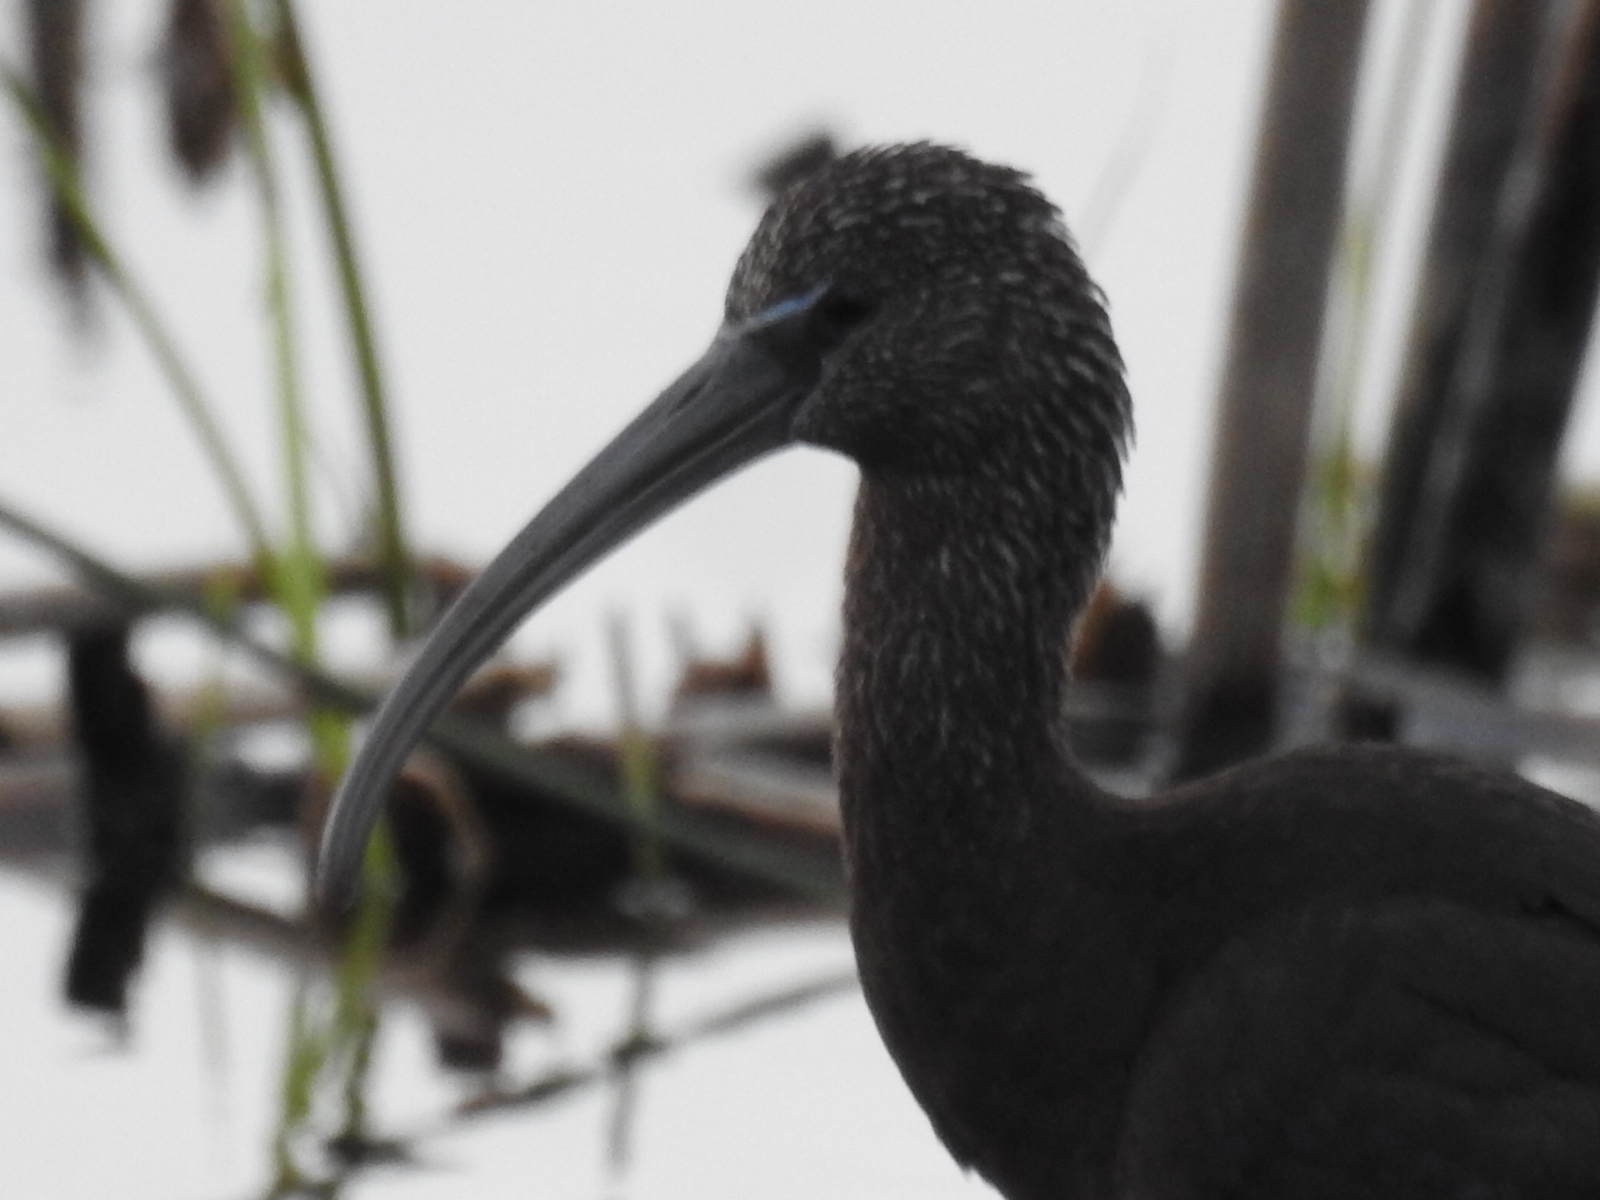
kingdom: Animalia
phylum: Chordata
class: Aves
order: Pelecaniformes
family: Threskiornithidae
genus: Plegadis
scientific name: Plegadis falcinellus
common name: Glossy ibis
